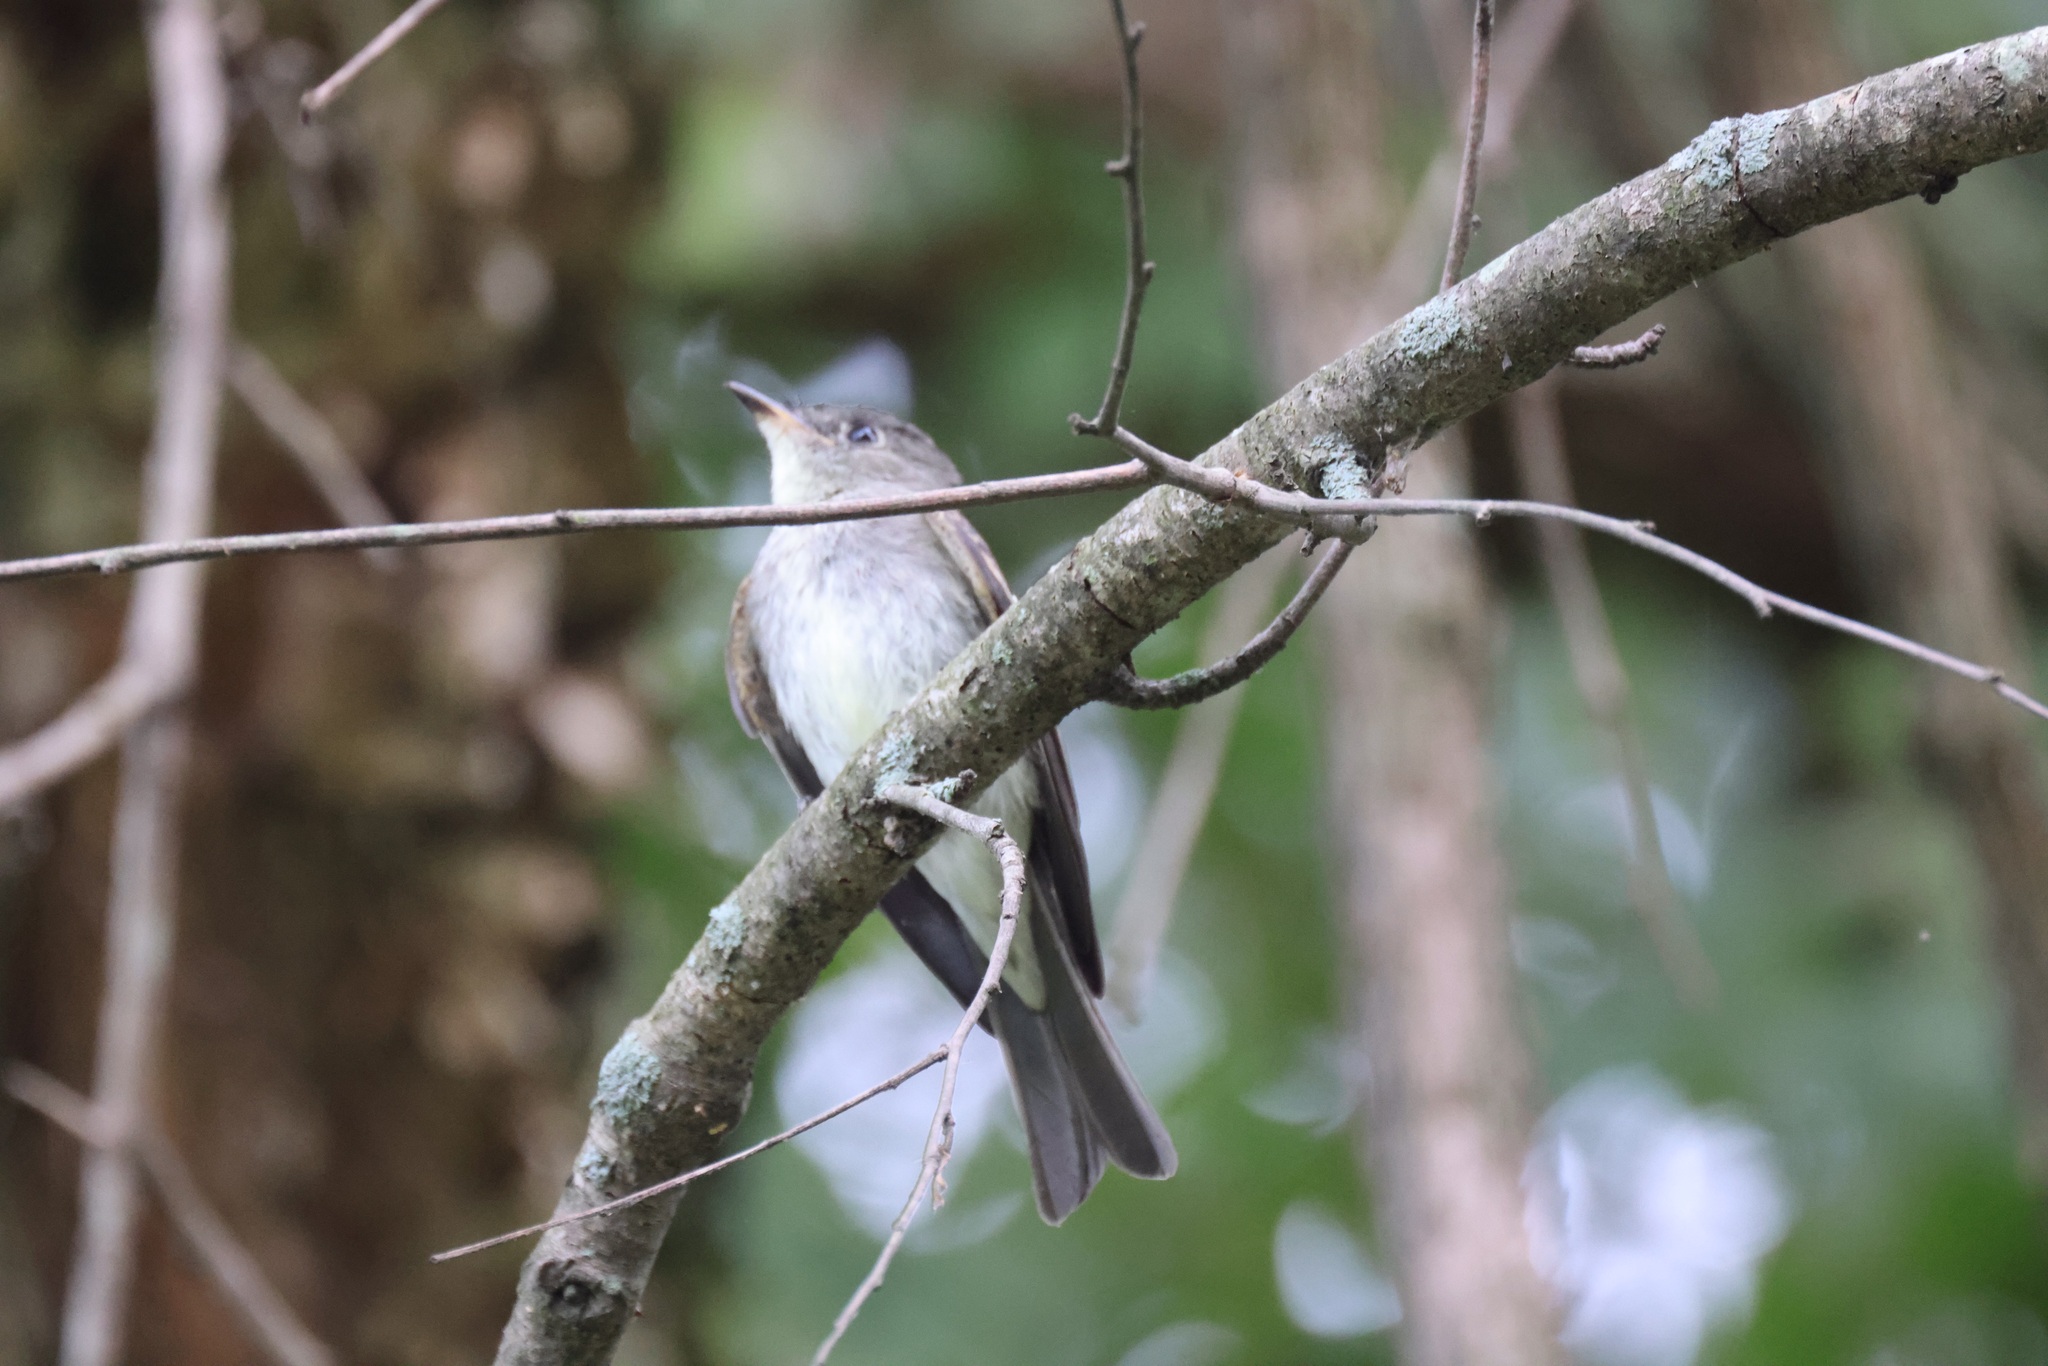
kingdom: Animalia
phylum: Chordata
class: Aves
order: Passeriformes
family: Tyrannidae
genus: Contopus
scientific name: Contopus virens
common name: Eastern wood-pewee
